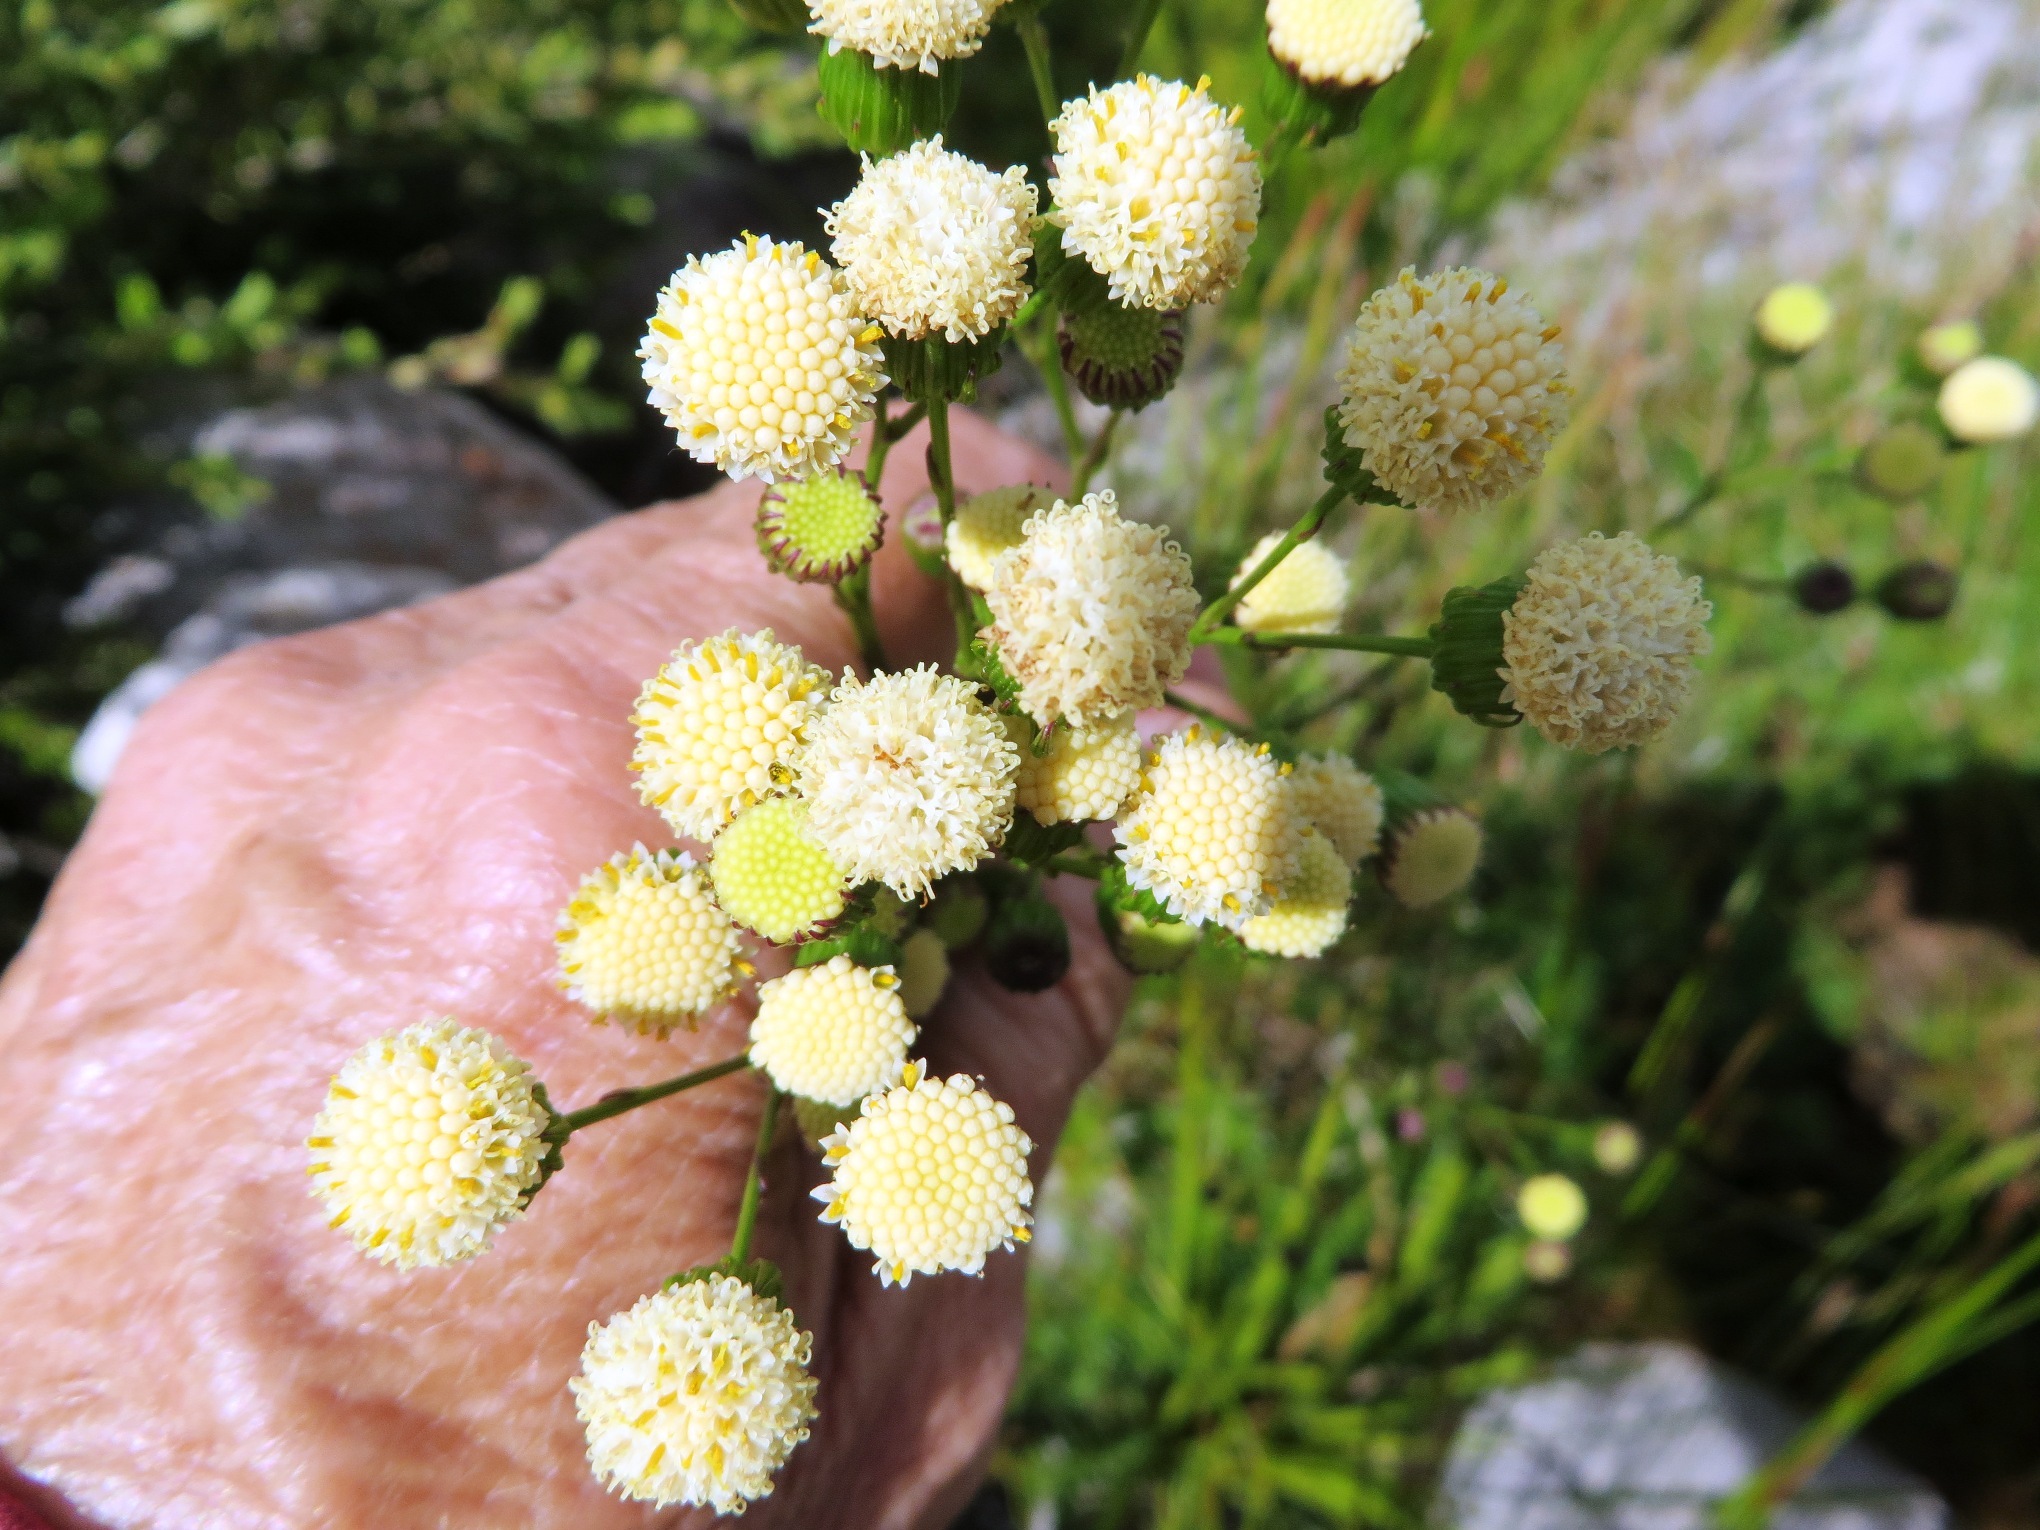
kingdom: Plantae
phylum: Tracheophyta
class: Magnoliopsida
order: Asterales
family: Asteraceae
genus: Senecio
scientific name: Senecio triqueter
